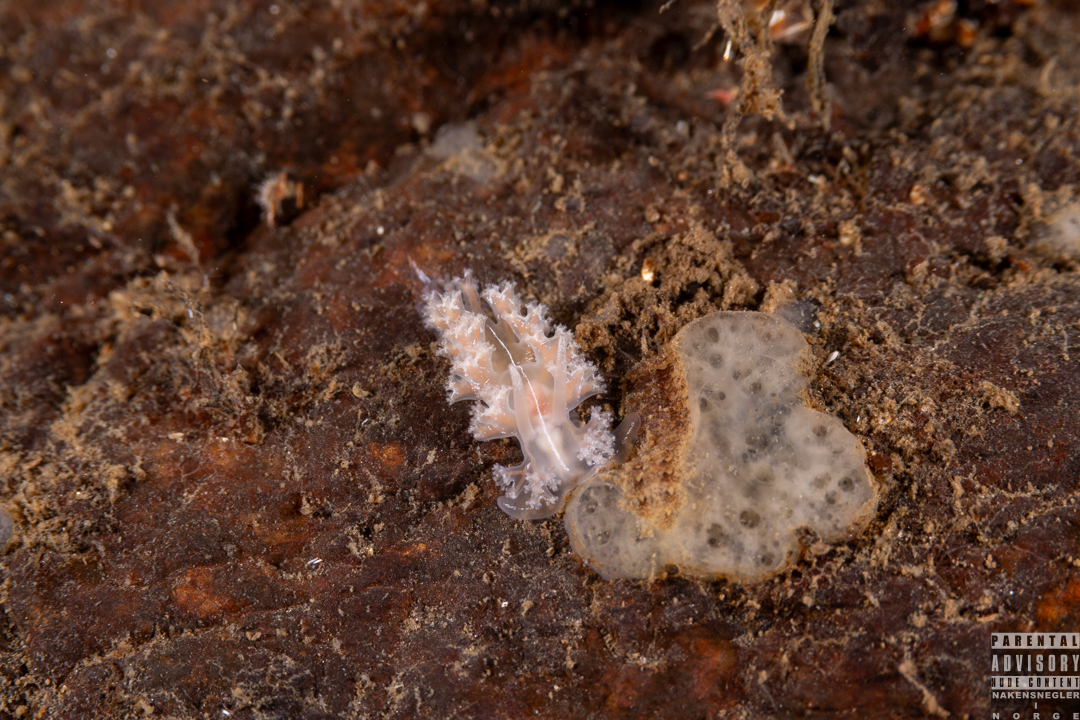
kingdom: Animalia
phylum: Mollusca
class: Gastropoda
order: Nudibranchia
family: Heroidae
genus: Hero
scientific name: Hero formosa
